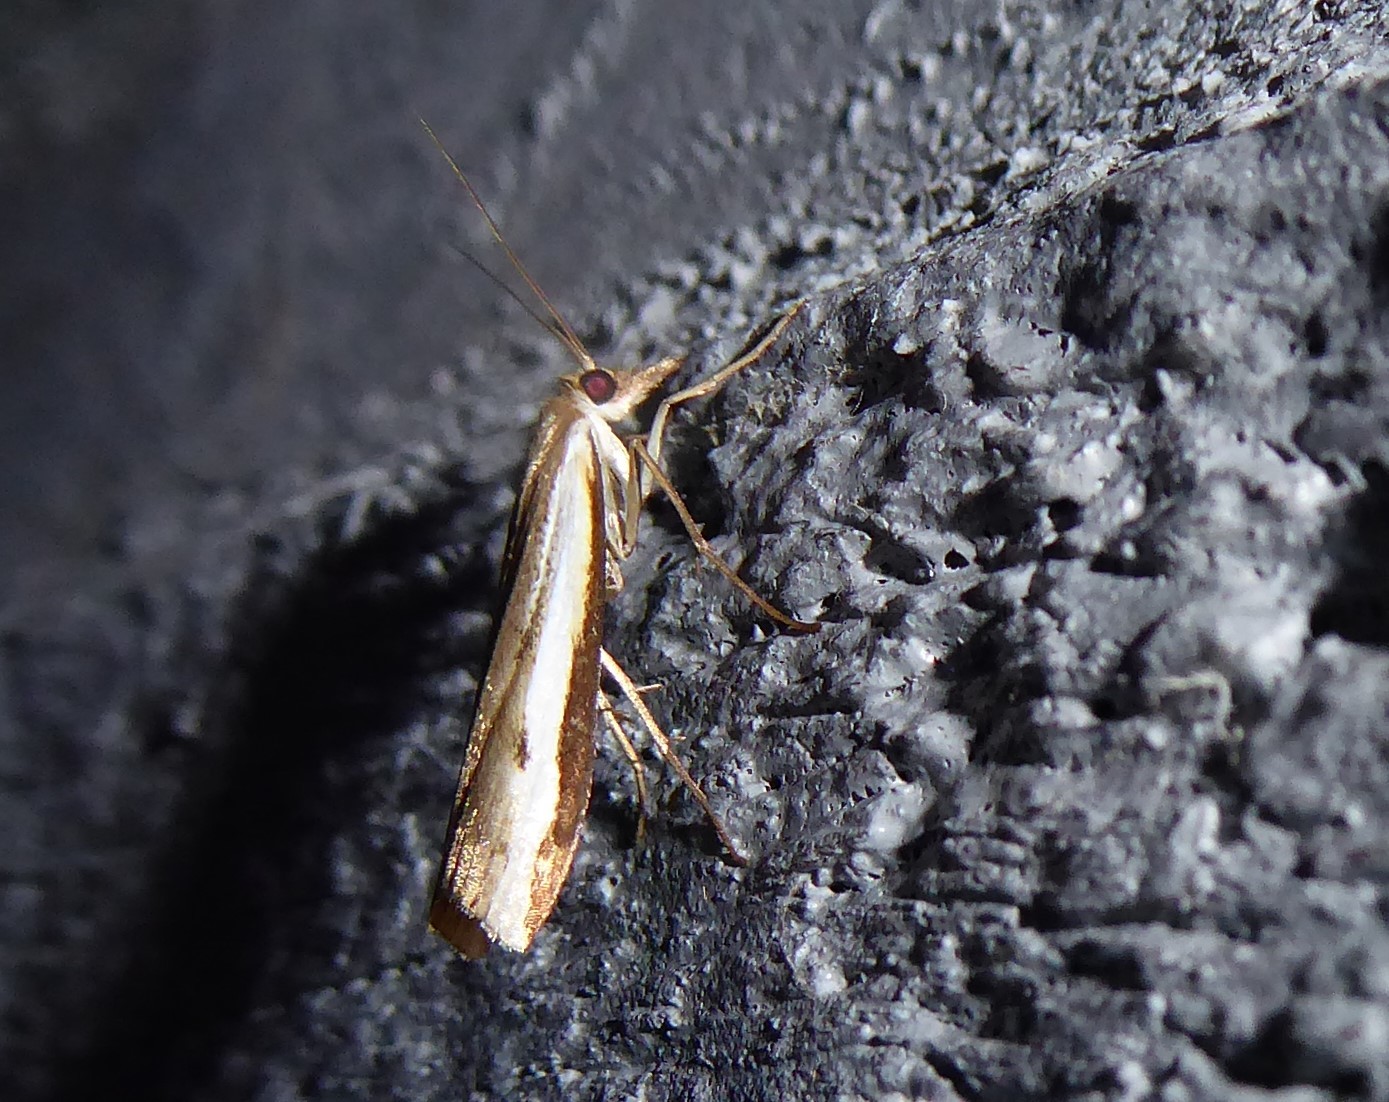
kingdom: Animalia
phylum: Arthropoda
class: Insecta
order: Lepidoptera
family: Crambidae
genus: Orocrambus
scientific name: Orocrambus flexuosellus
